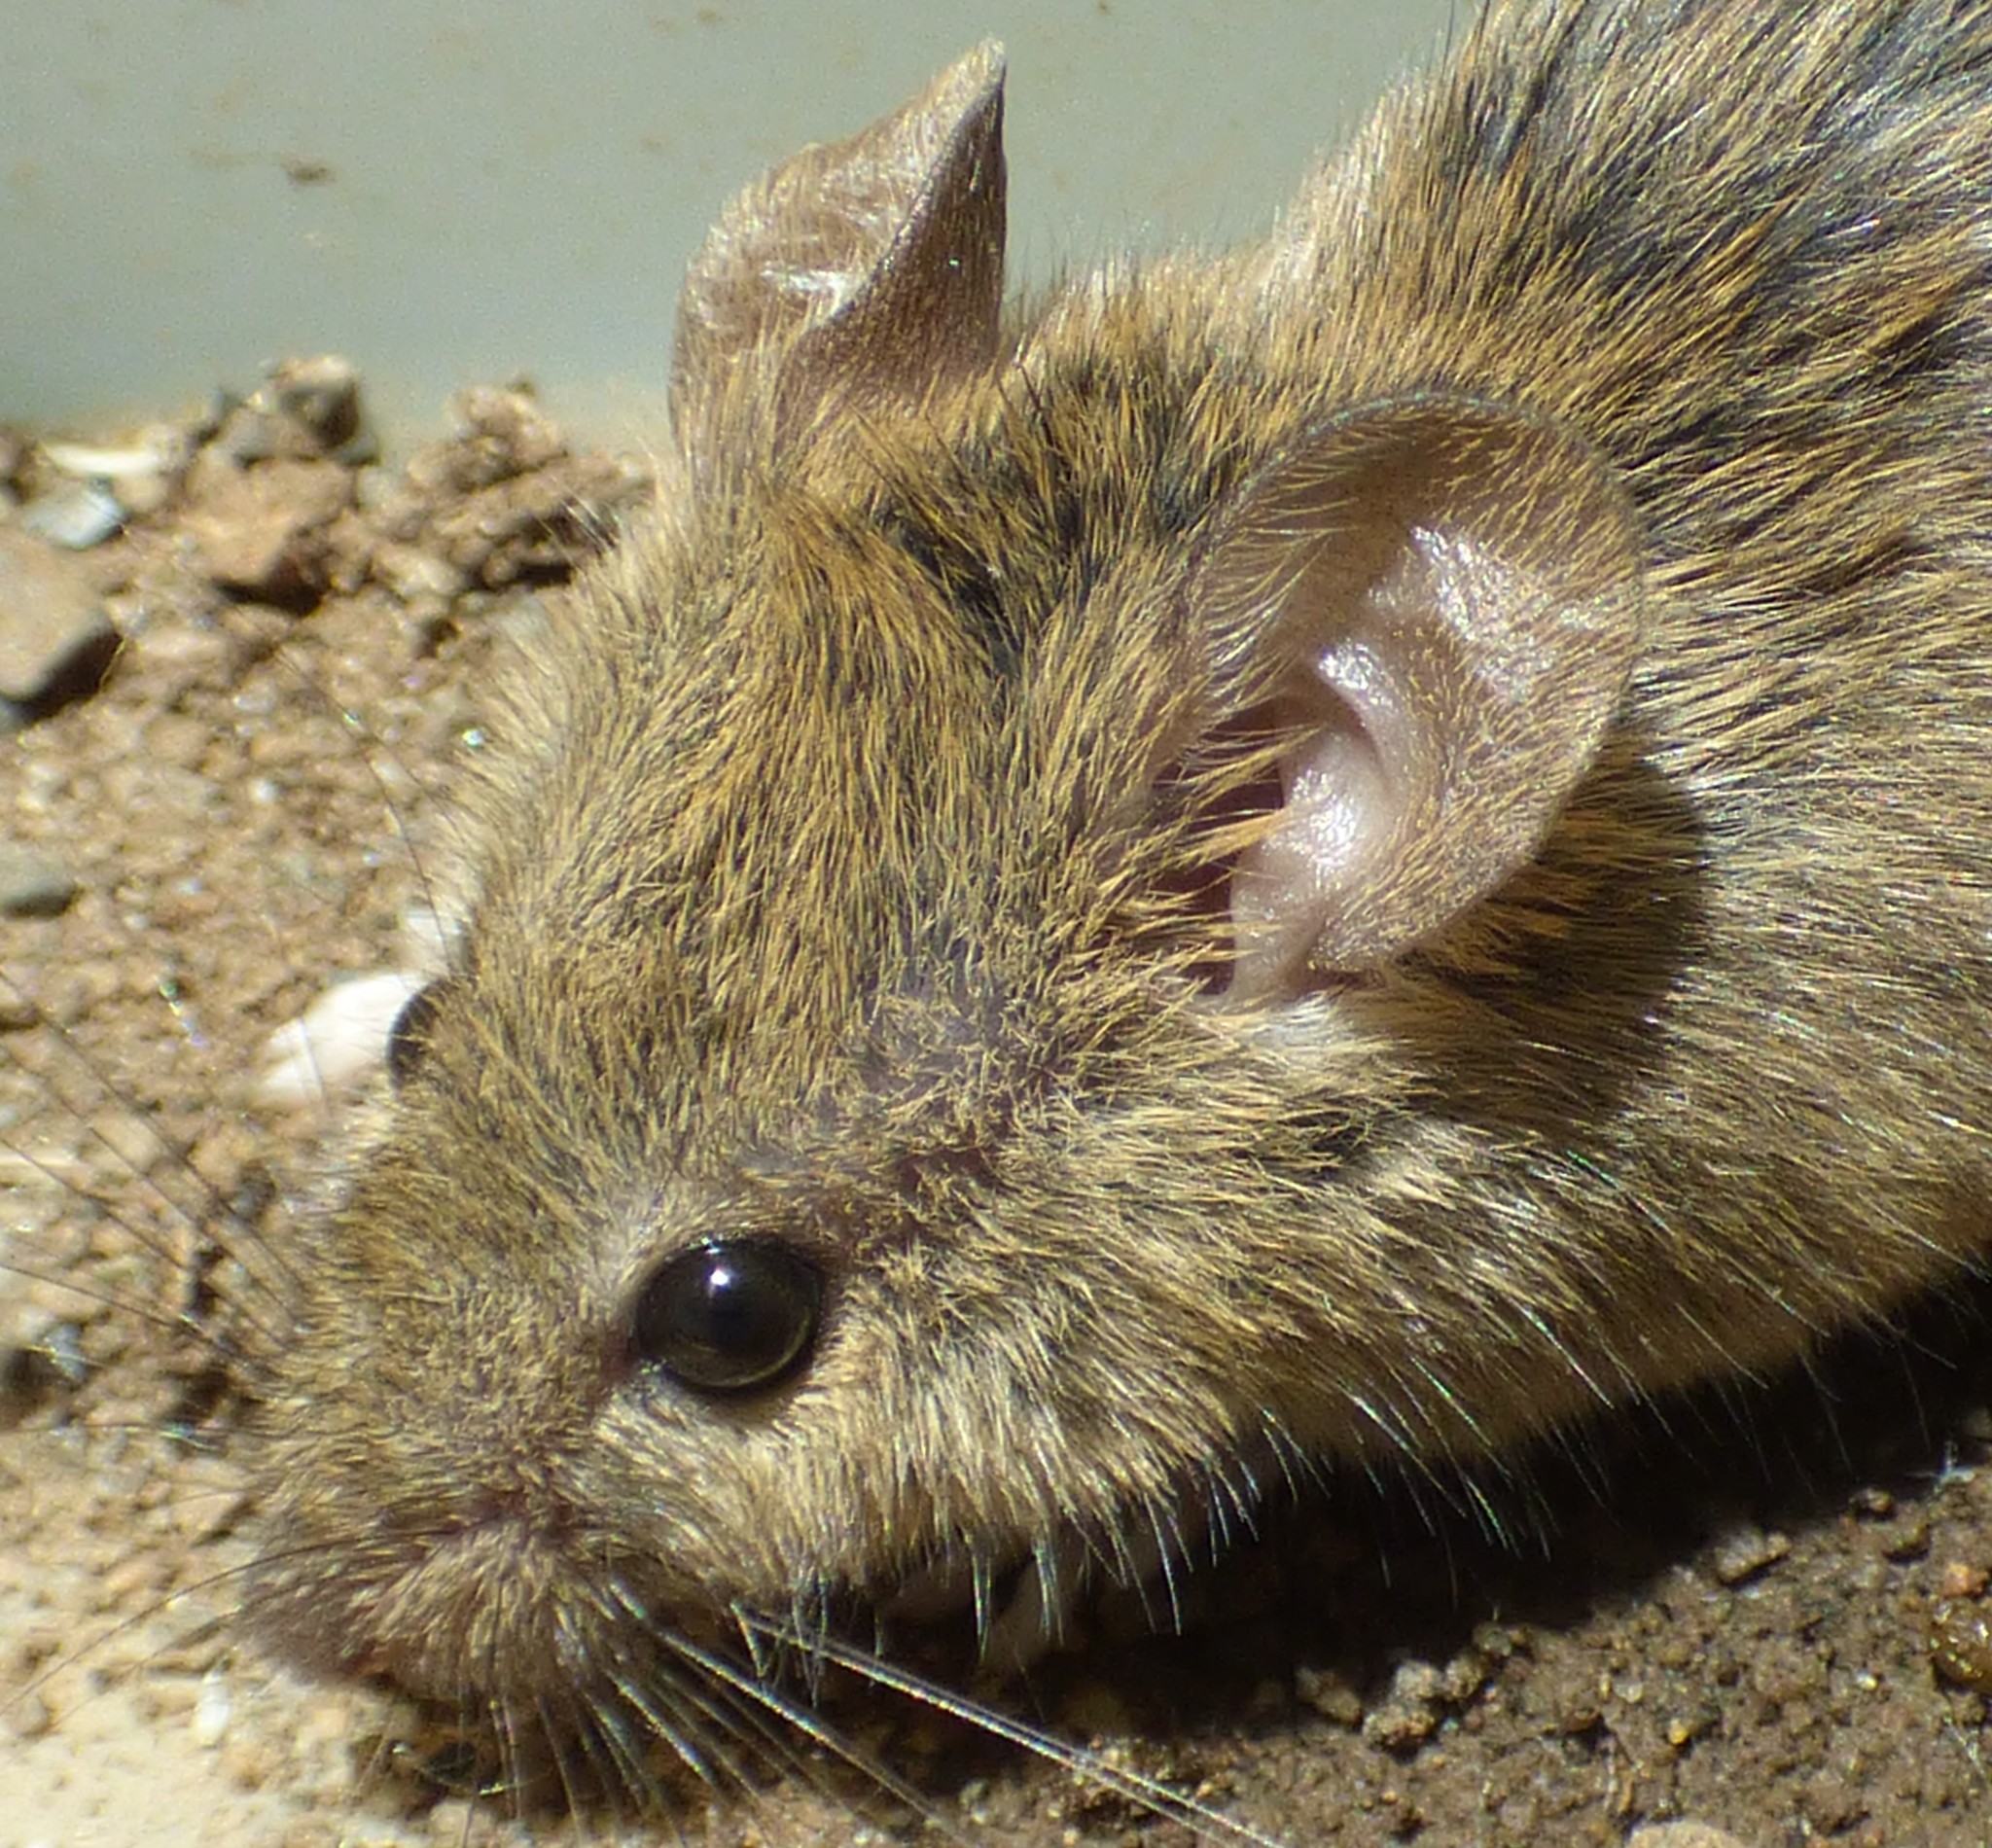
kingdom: Animalia
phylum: Chordata
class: Mammalia
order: Rodentia
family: Muridae
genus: Mus
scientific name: Mus musculus
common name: House mouse
